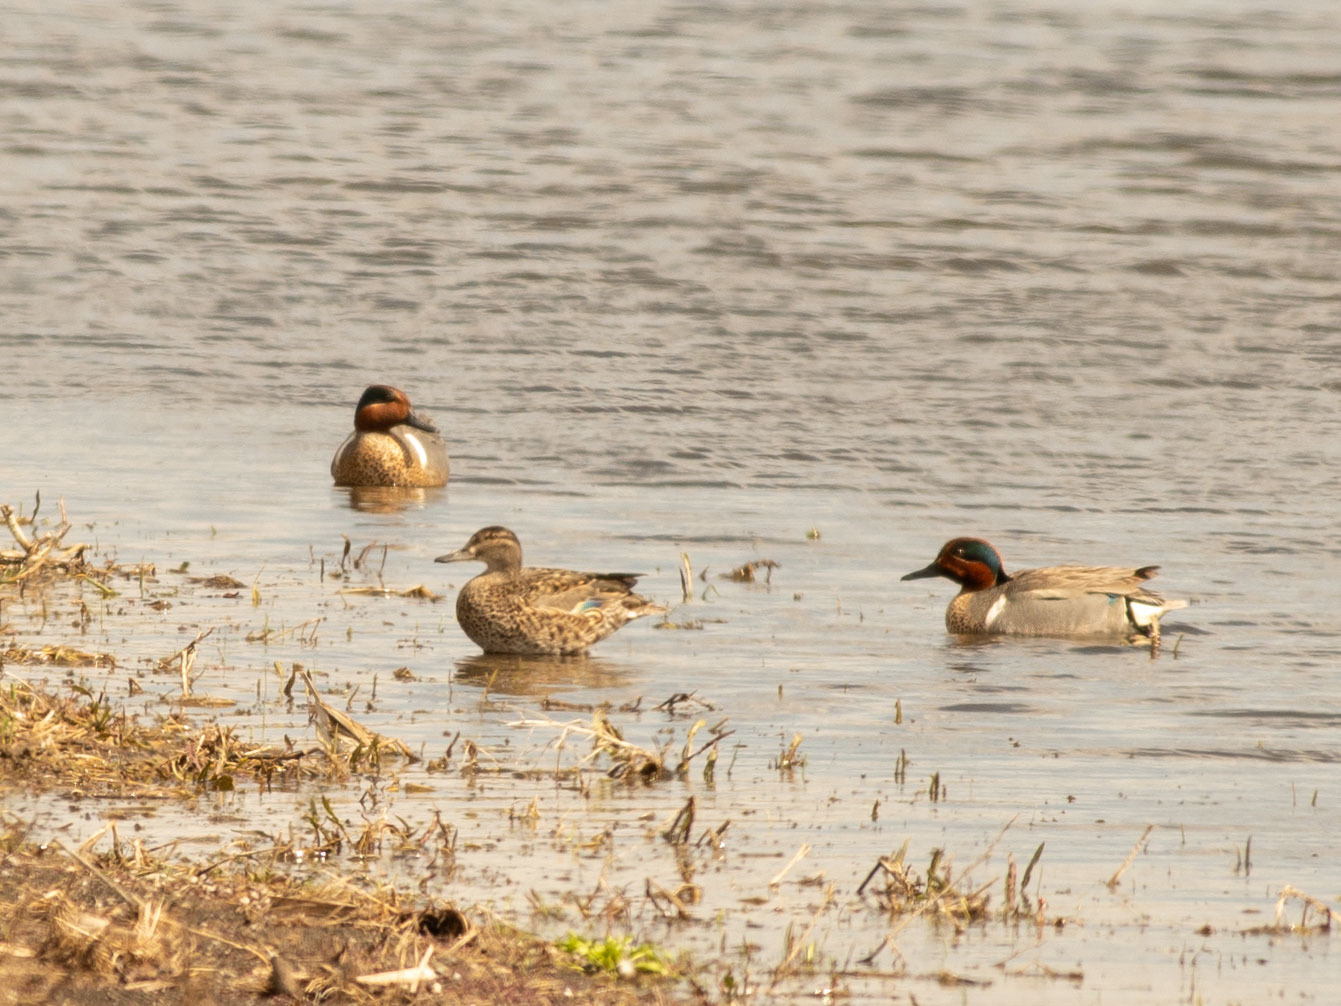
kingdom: Animalia
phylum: Chordata
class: Aves
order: Anseriformes
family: Anatidae
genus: Anas
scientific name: Anas crecca
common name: Eurasian teal
